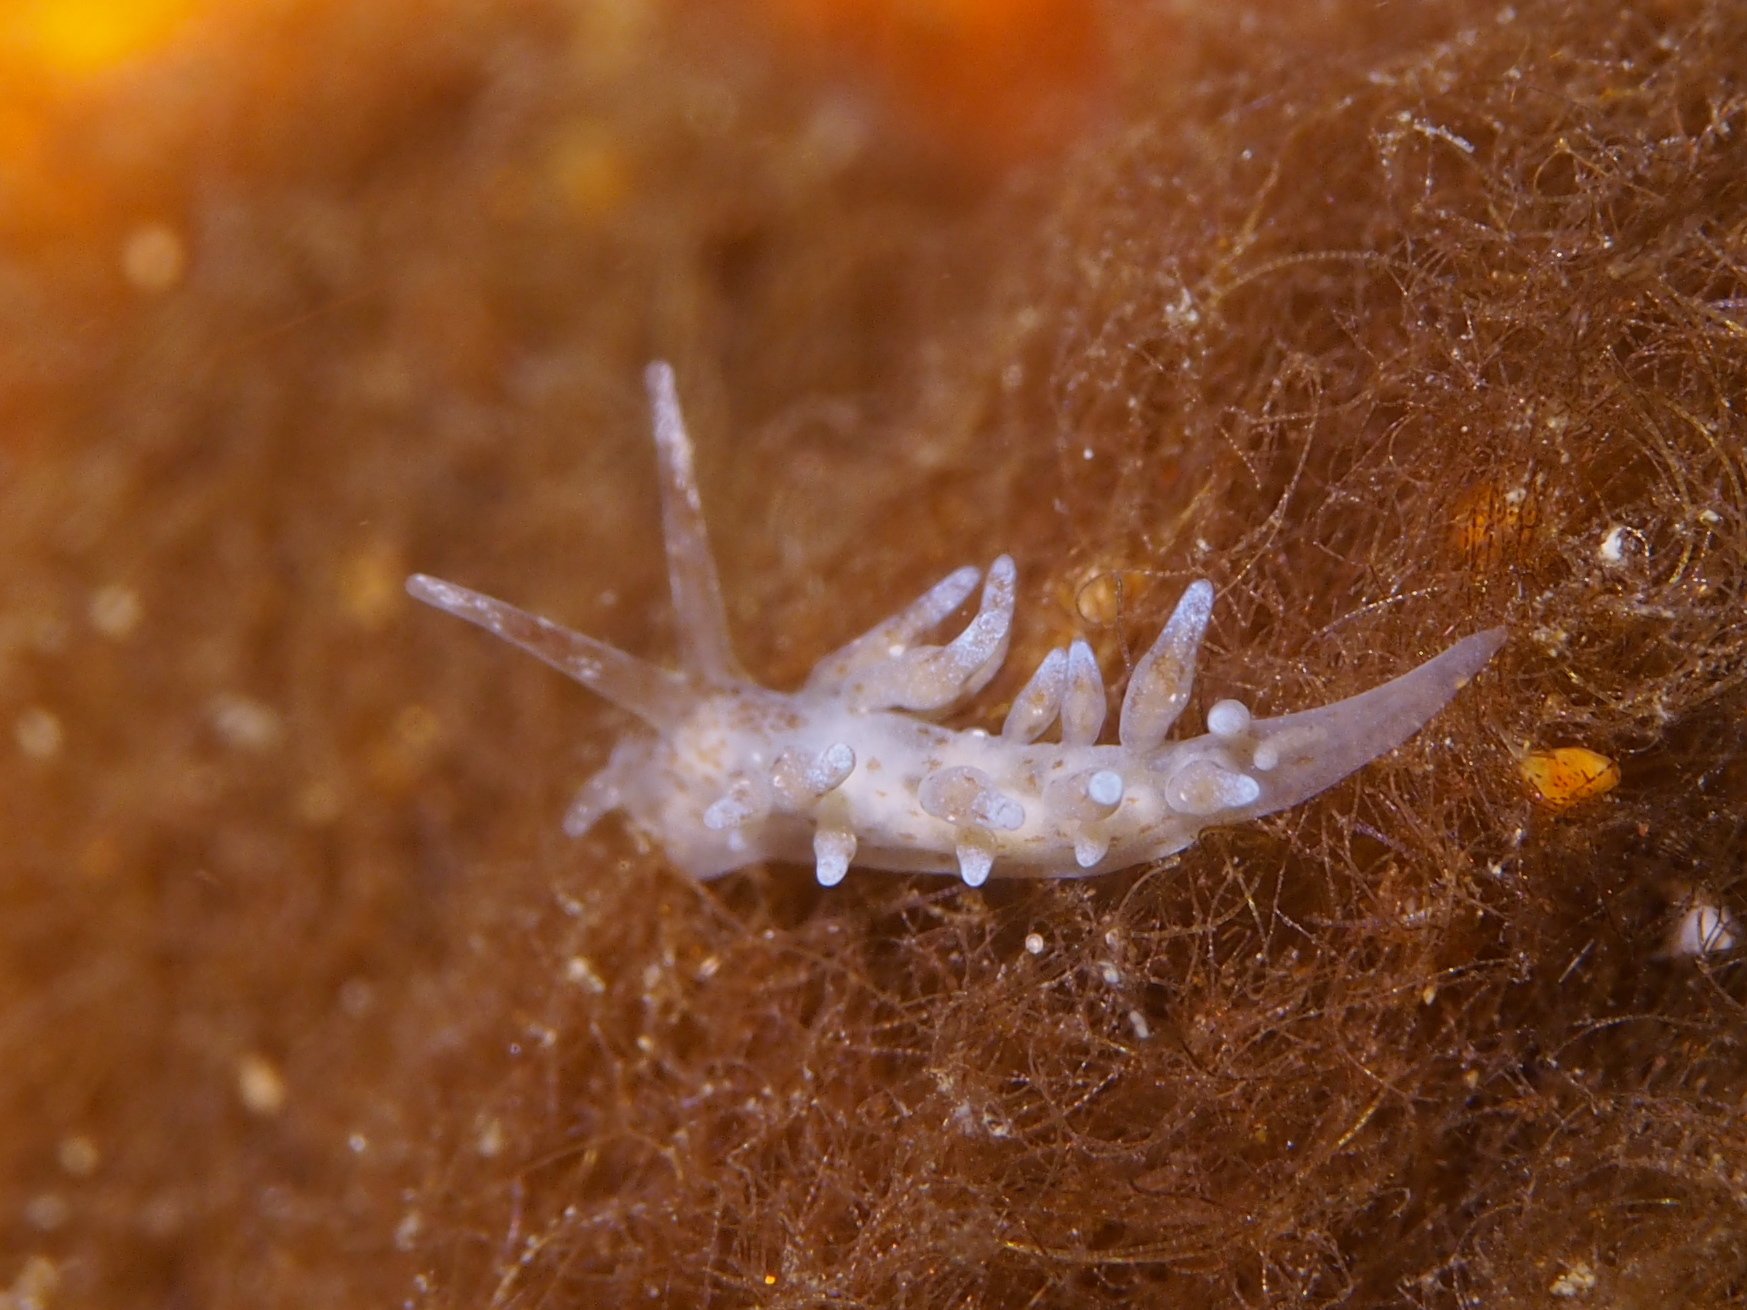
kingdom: Animalia
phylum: Mollusca
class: Gastropoda
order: Nudibranchia
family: Eubranchidae
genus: Eubranchus
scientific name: Eubranchus rupium
